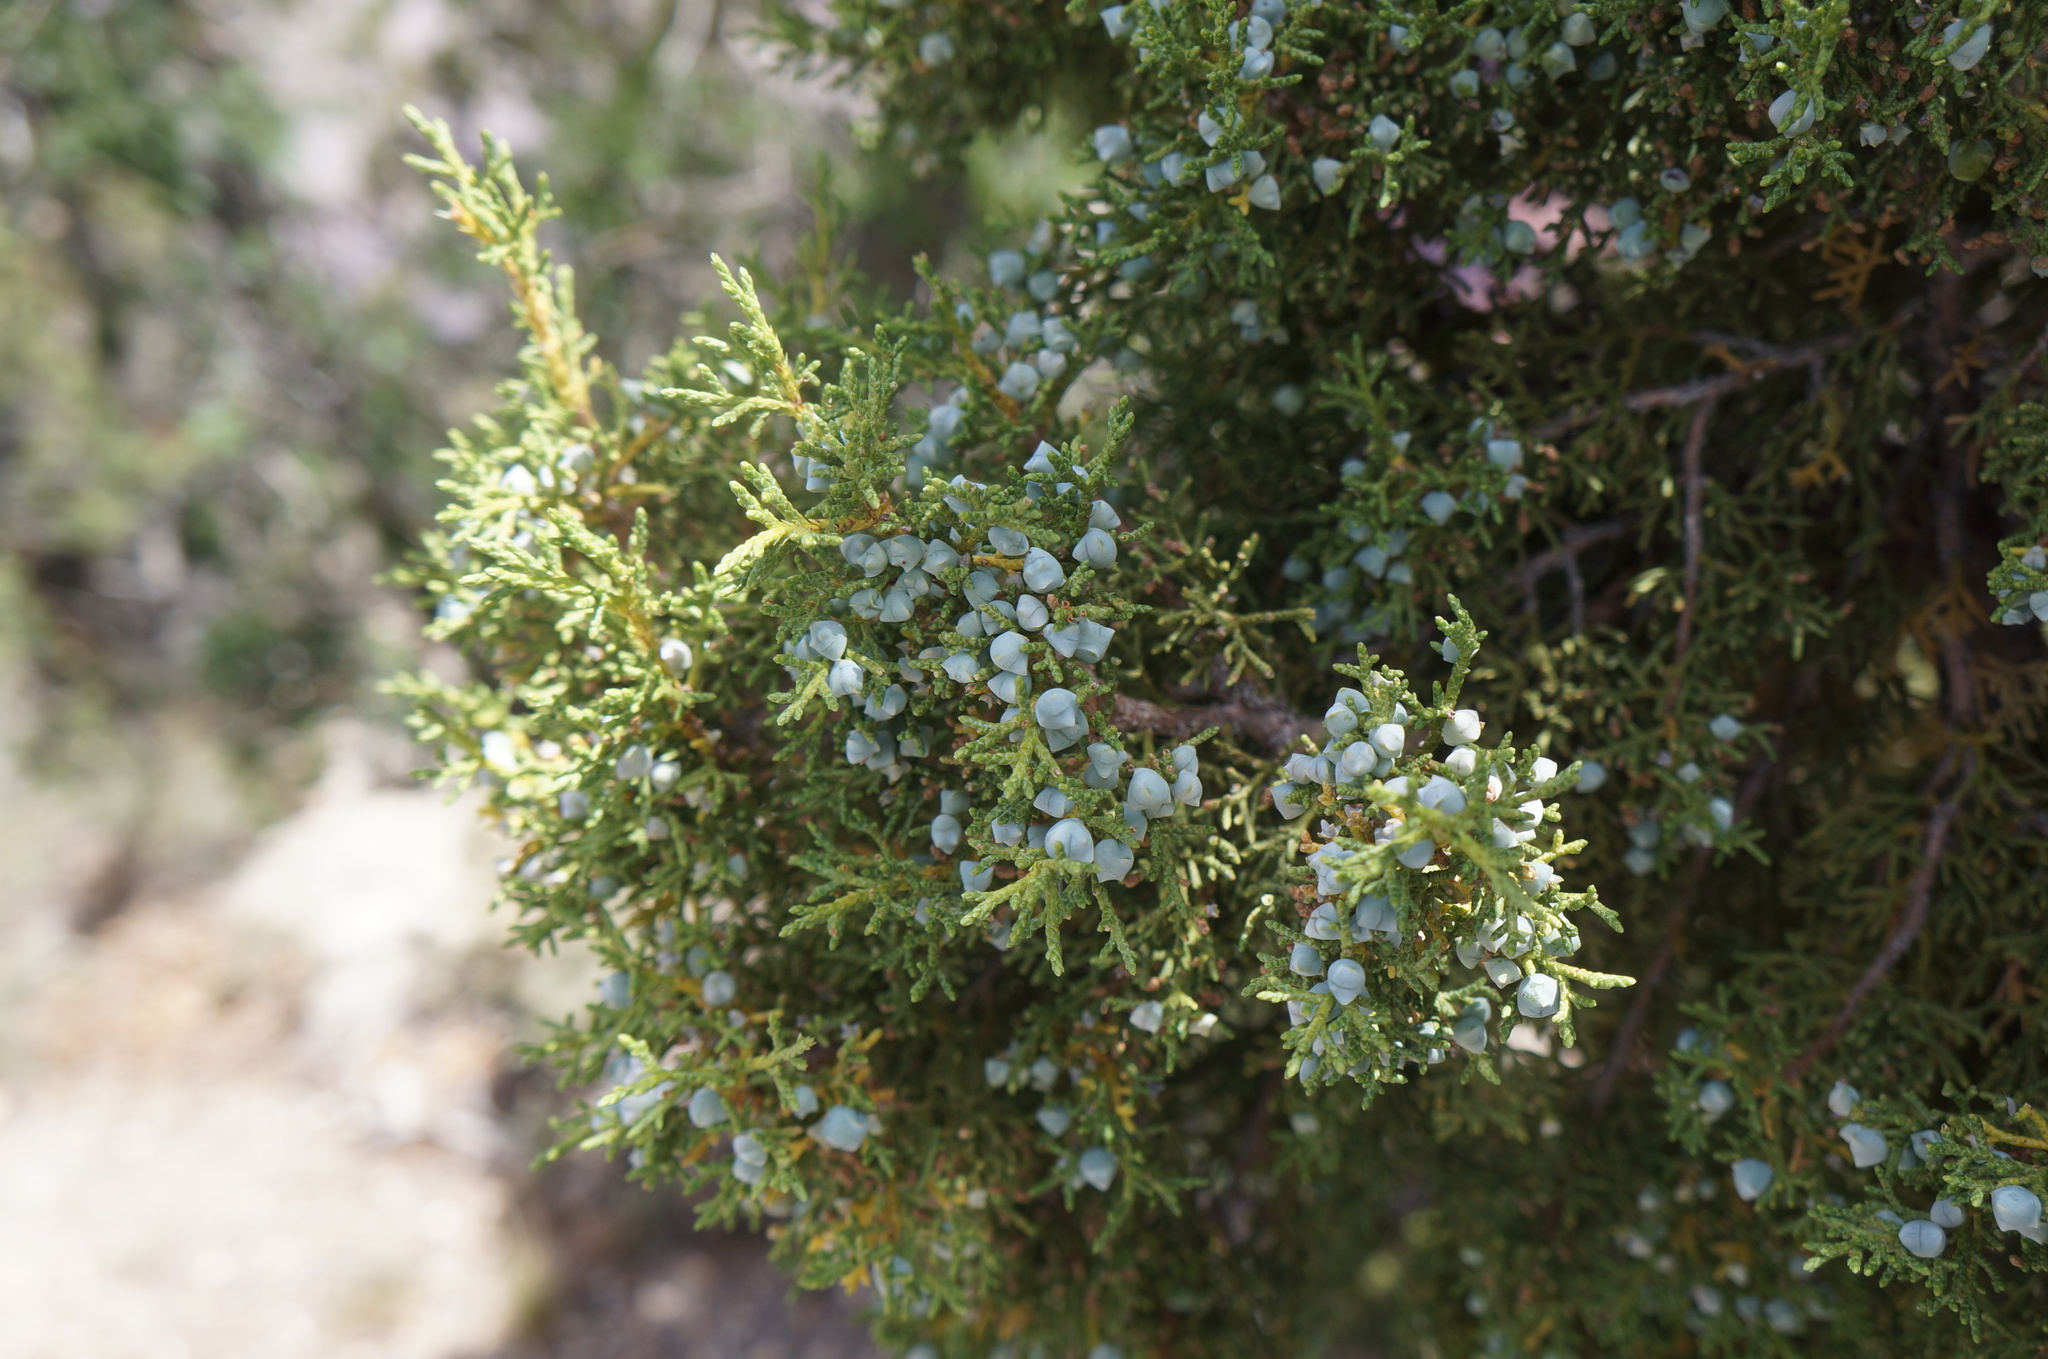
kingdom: Plantae
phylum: Tracheophyta
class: Pinopsida
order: Pinales
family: Cupressaceae
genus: Juniperus
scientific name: Juniperus osteosperma
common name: Utah juniper
